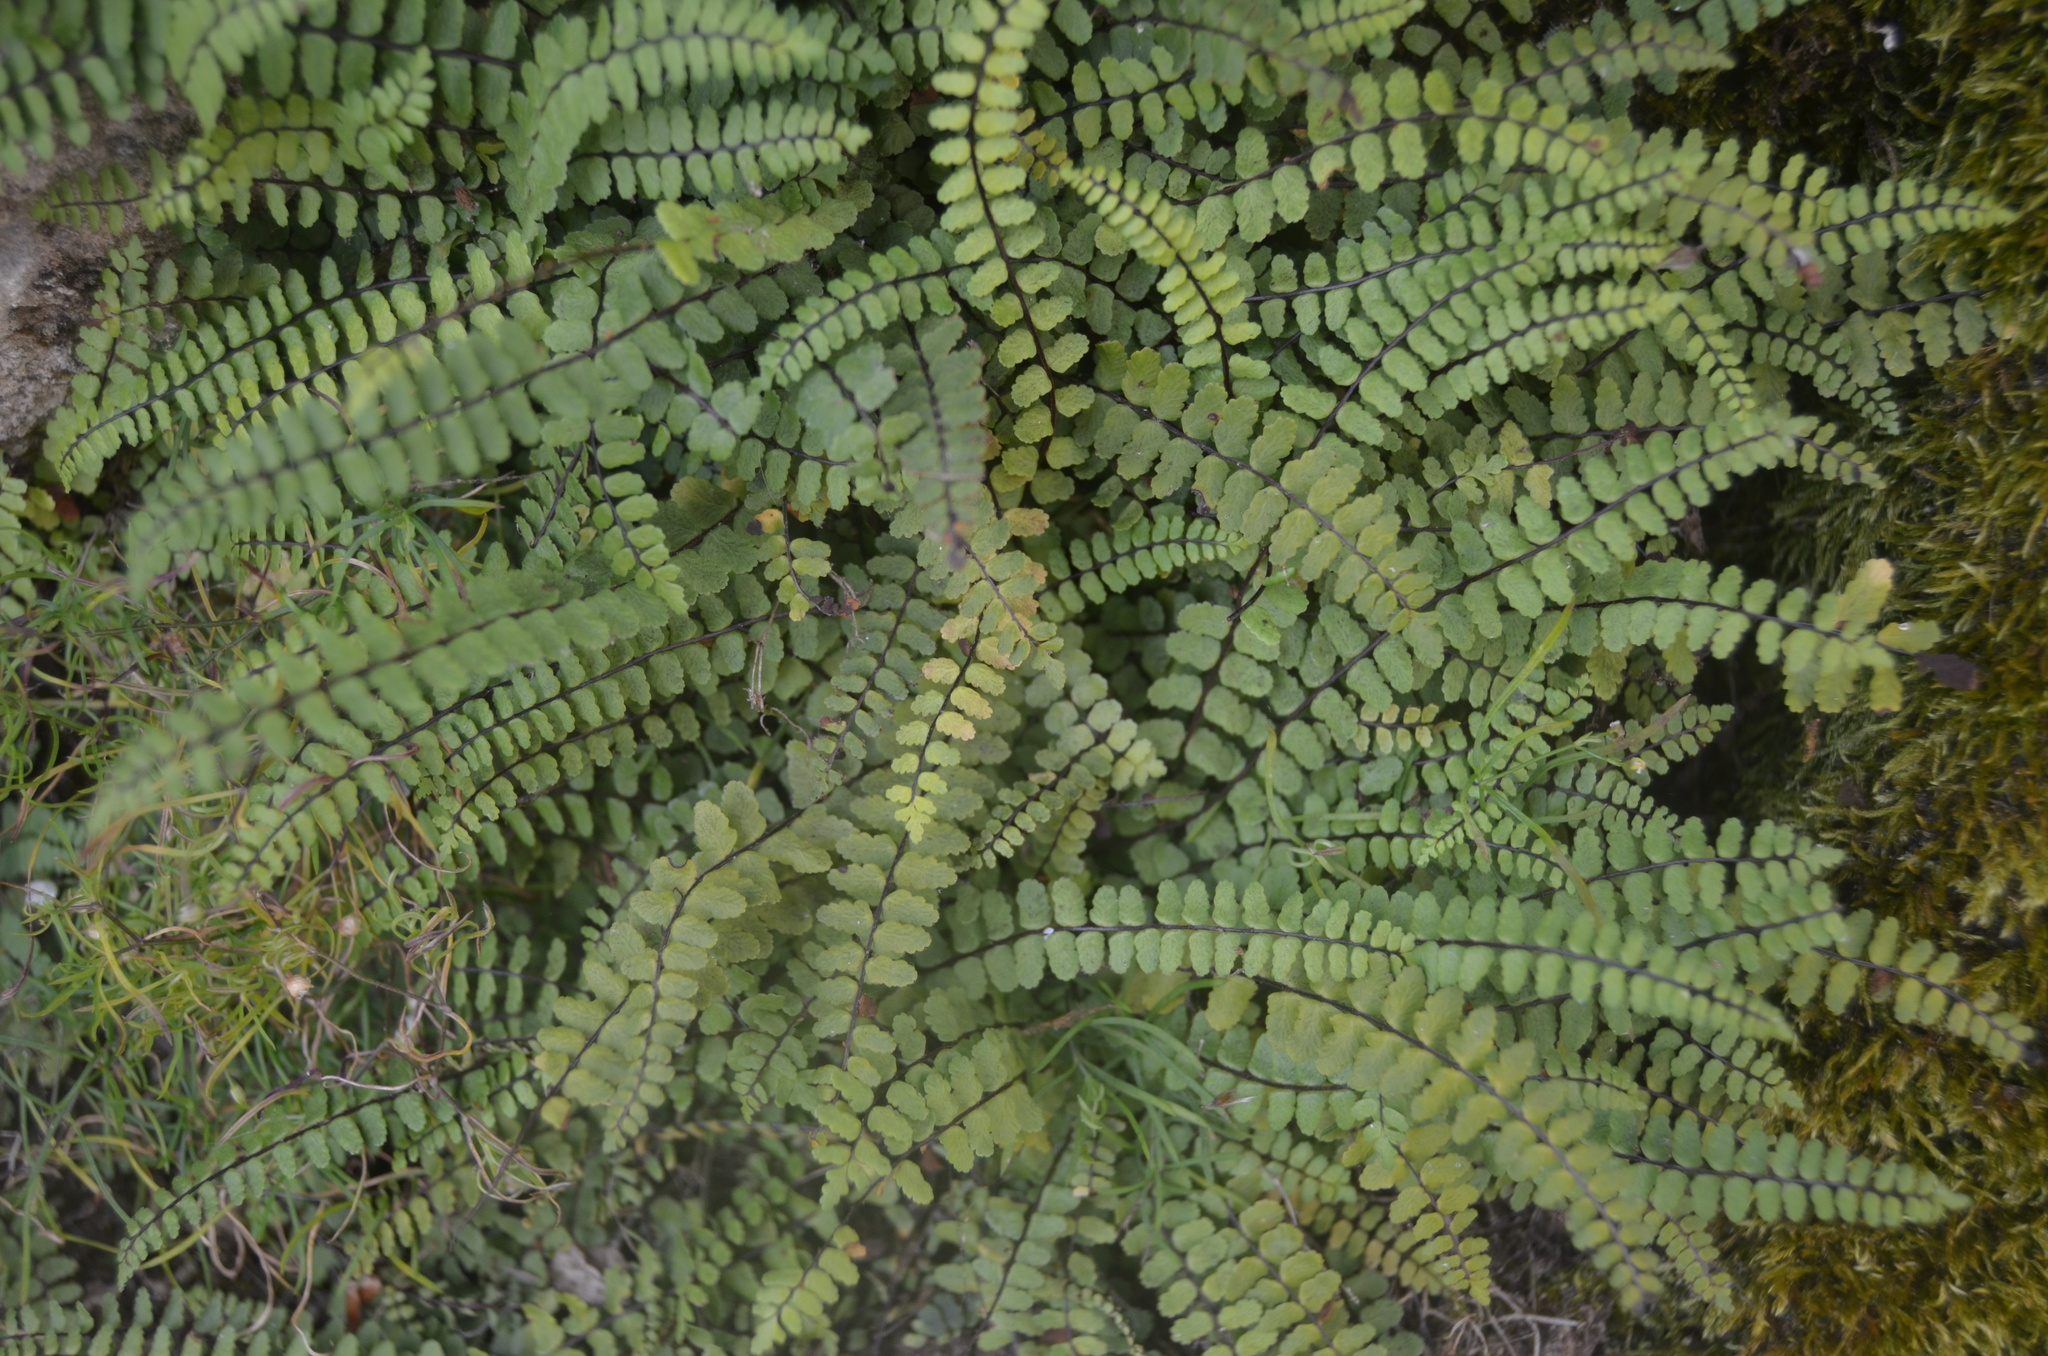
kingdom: Plantae
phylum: Tracheophyta
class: Polypodiopsida
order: Polypodiales
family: Aspleniaceae
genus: Asplenium
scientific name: Asplenium trichomanes
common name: Maidenhair spleenwort
